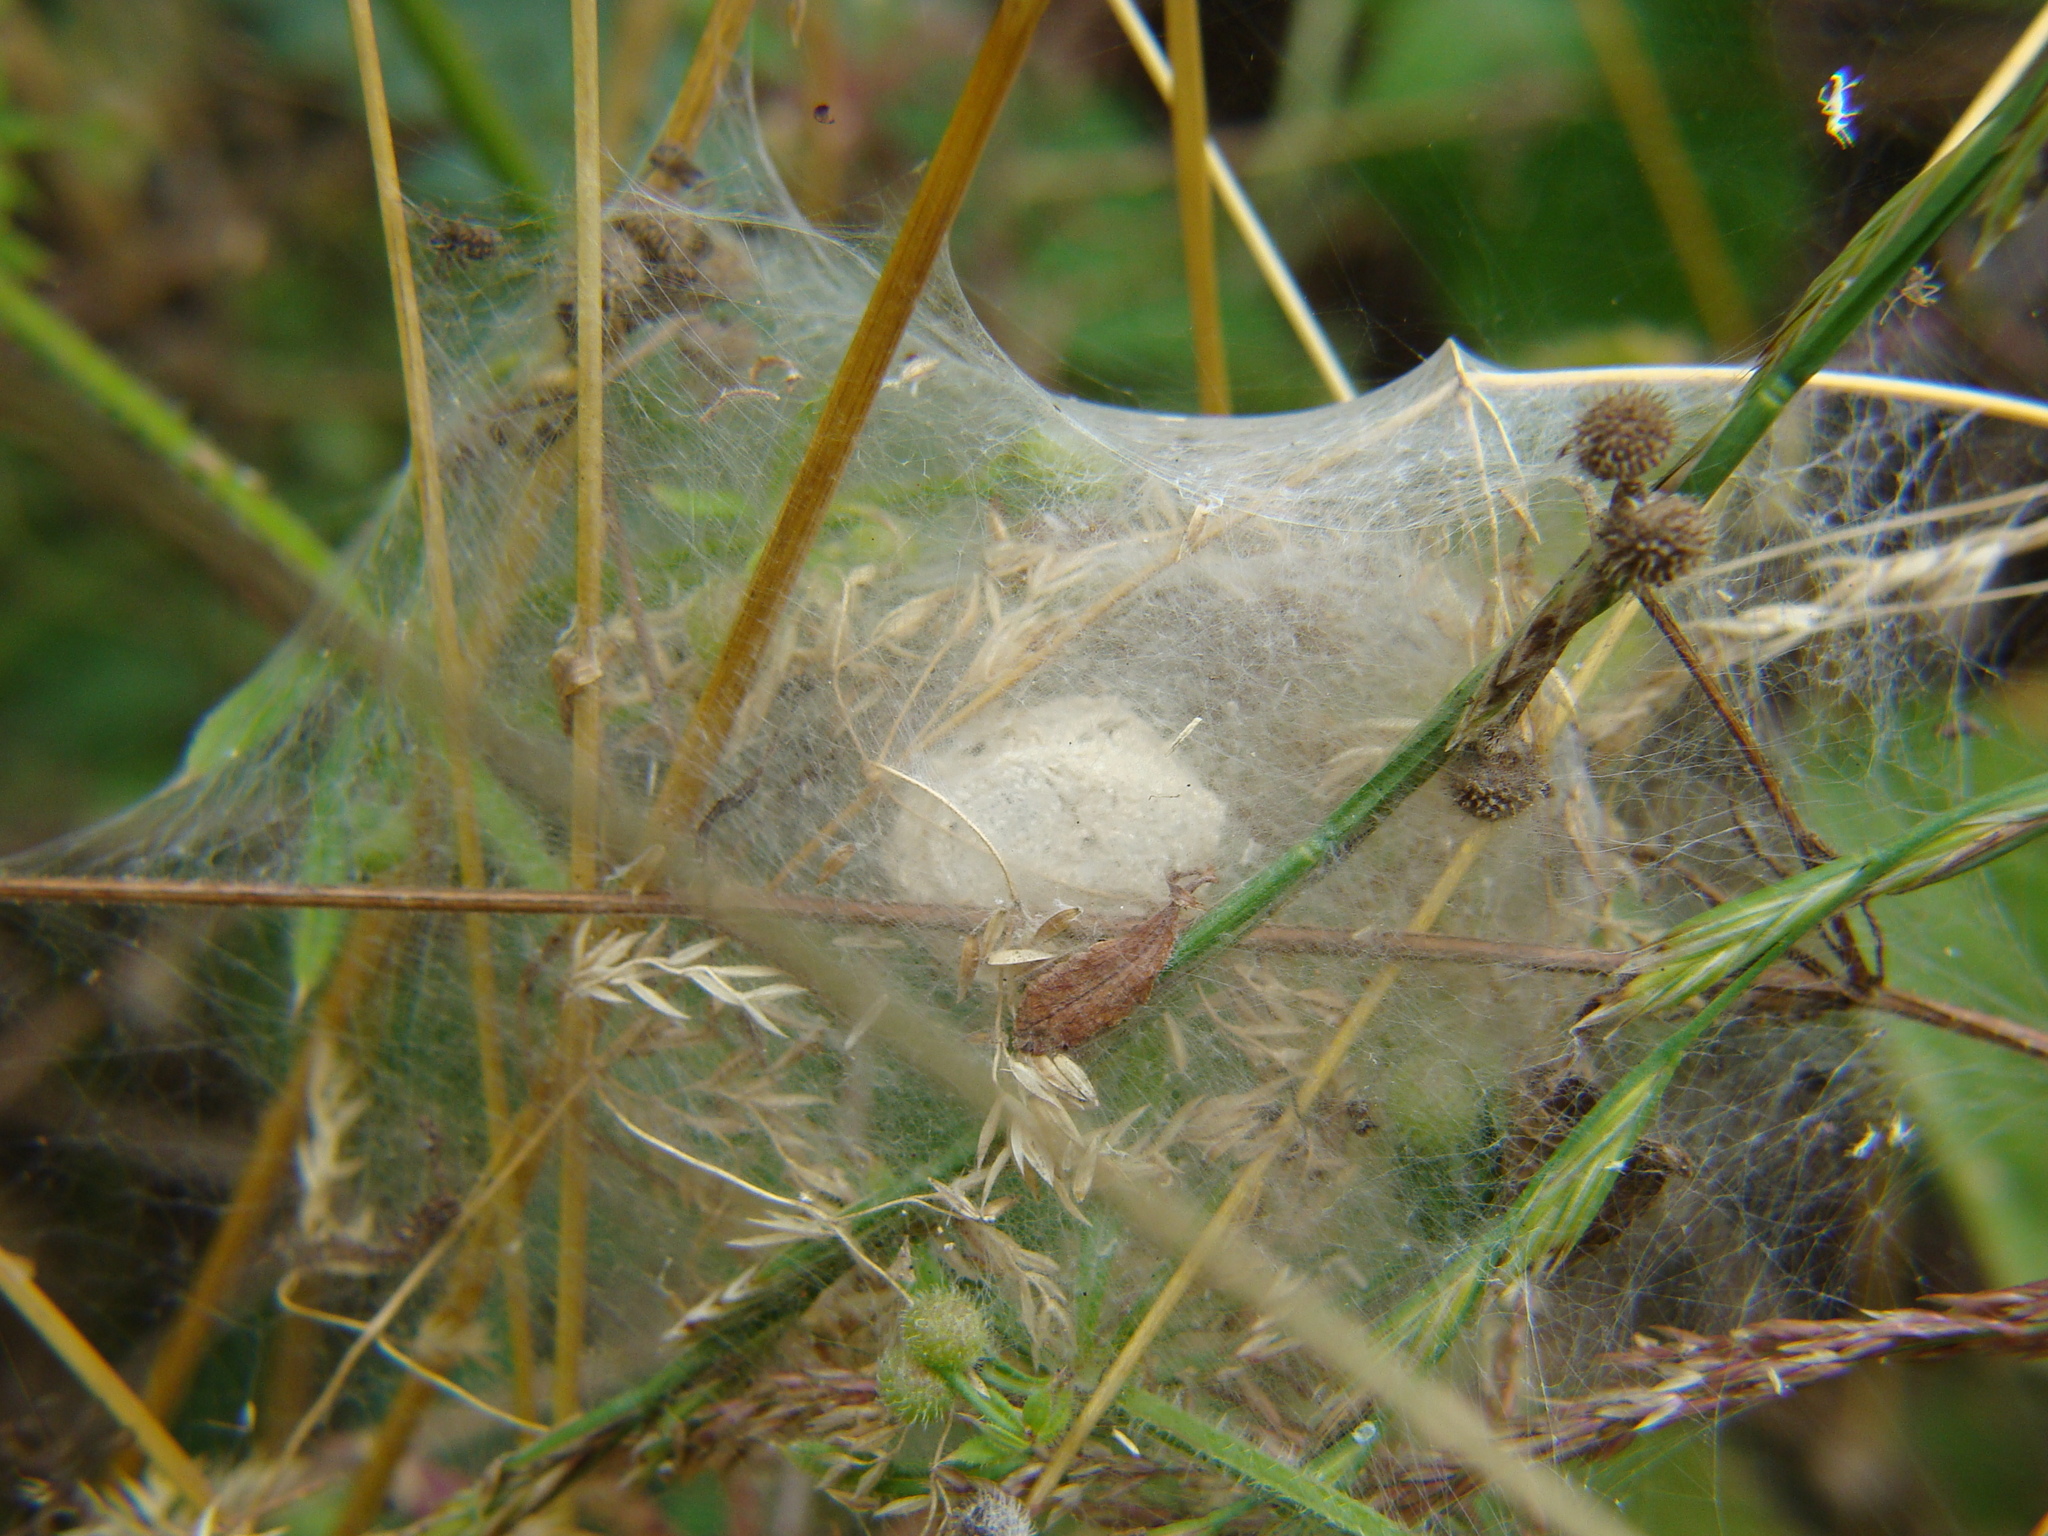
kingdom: Animalia
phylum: Arthropoda
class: Arachnida
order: Araneae
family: Pisauridae
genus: Pisaura
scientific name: Pisaura mirabilis
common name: Tent spider
